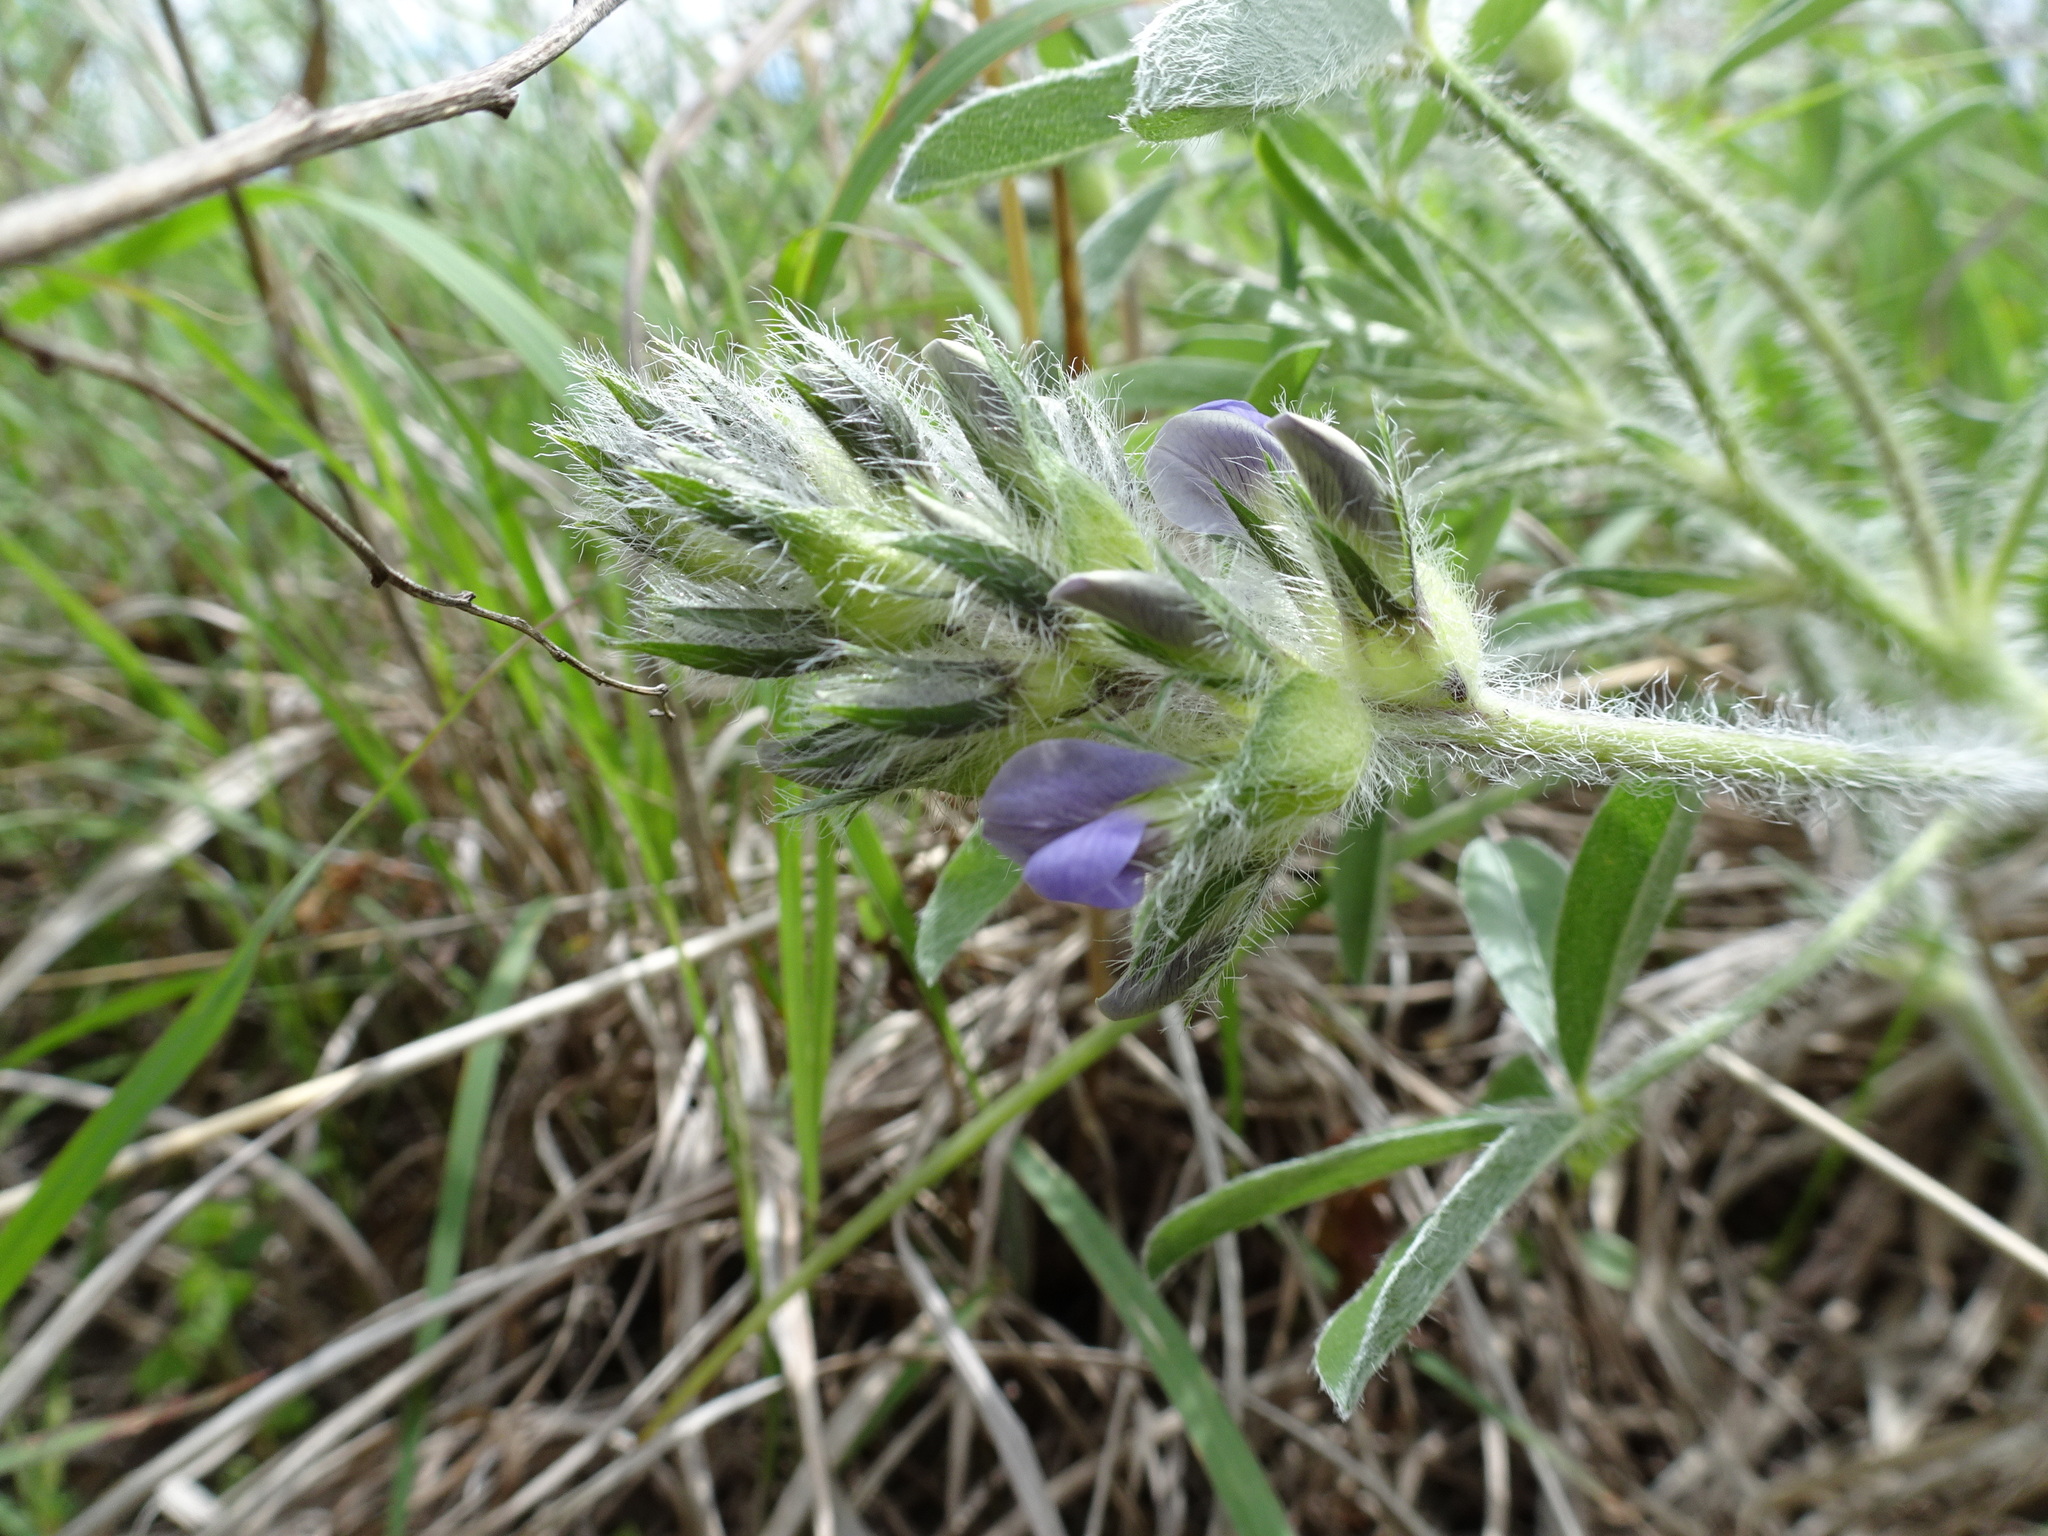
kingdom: Plantae
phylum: Tracheophyta
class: Magnoliopsida
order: Fabales
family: Fabaceae
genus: Pediomelum
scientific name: Pediomelum esculentum
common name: Indian-turnip
